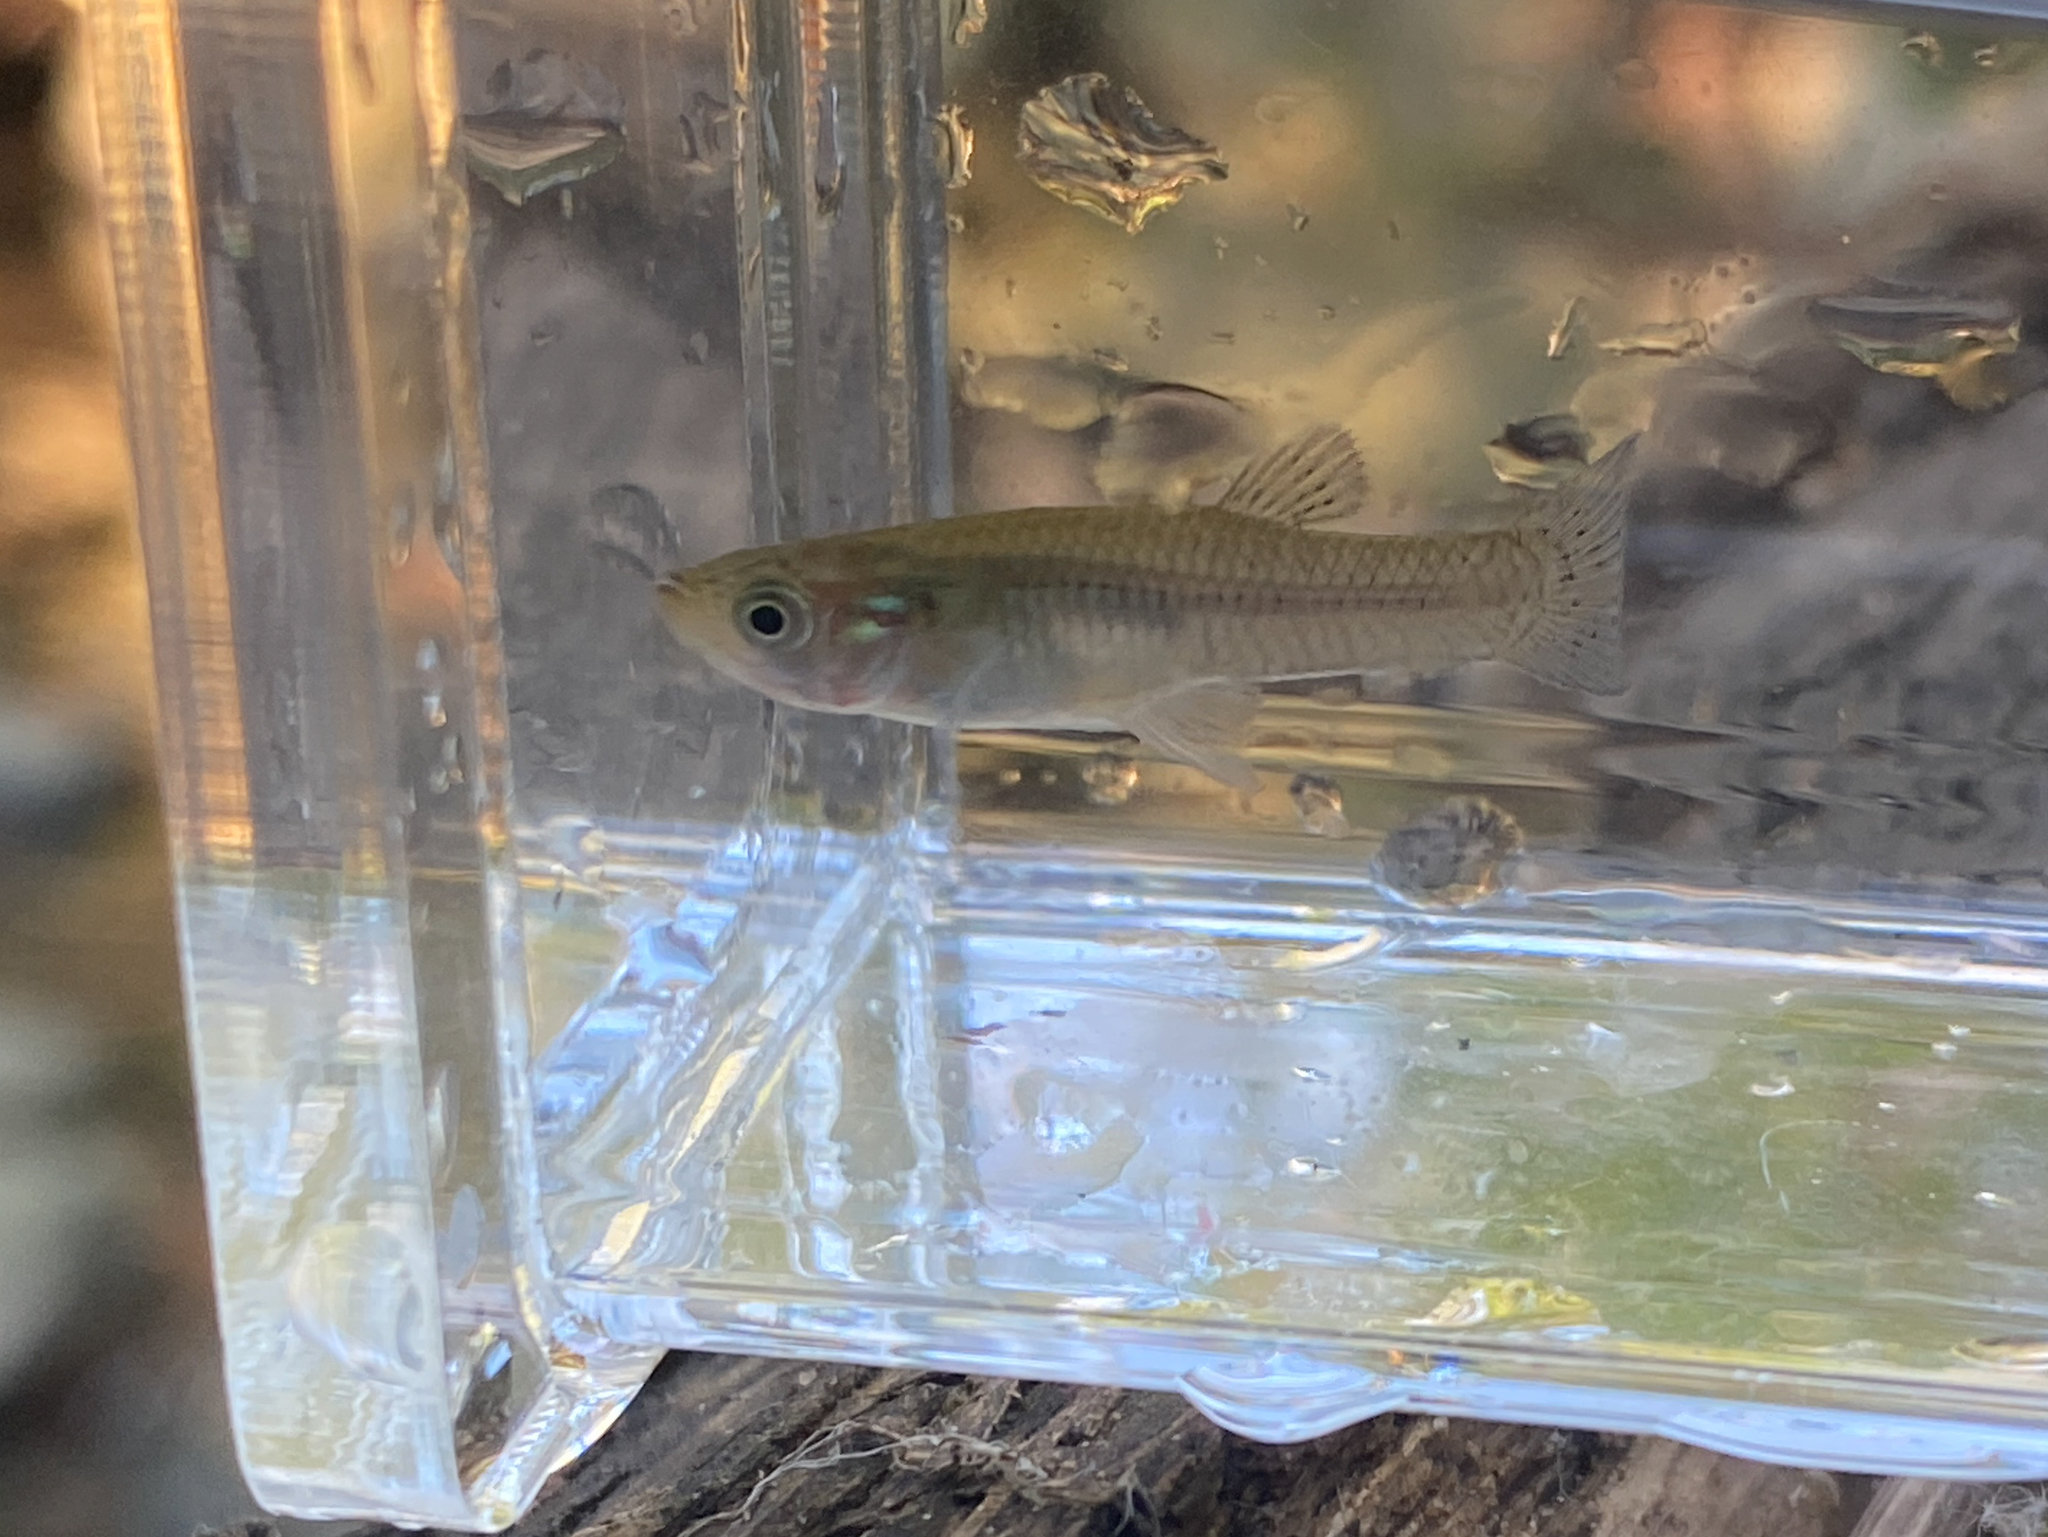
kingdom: Animalia
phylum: Chordata
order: Cyprinodontiformes
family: Poeciliidae
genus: Gambusia
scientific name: Gambusia holbrooki
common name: Eastern mosquitofish
